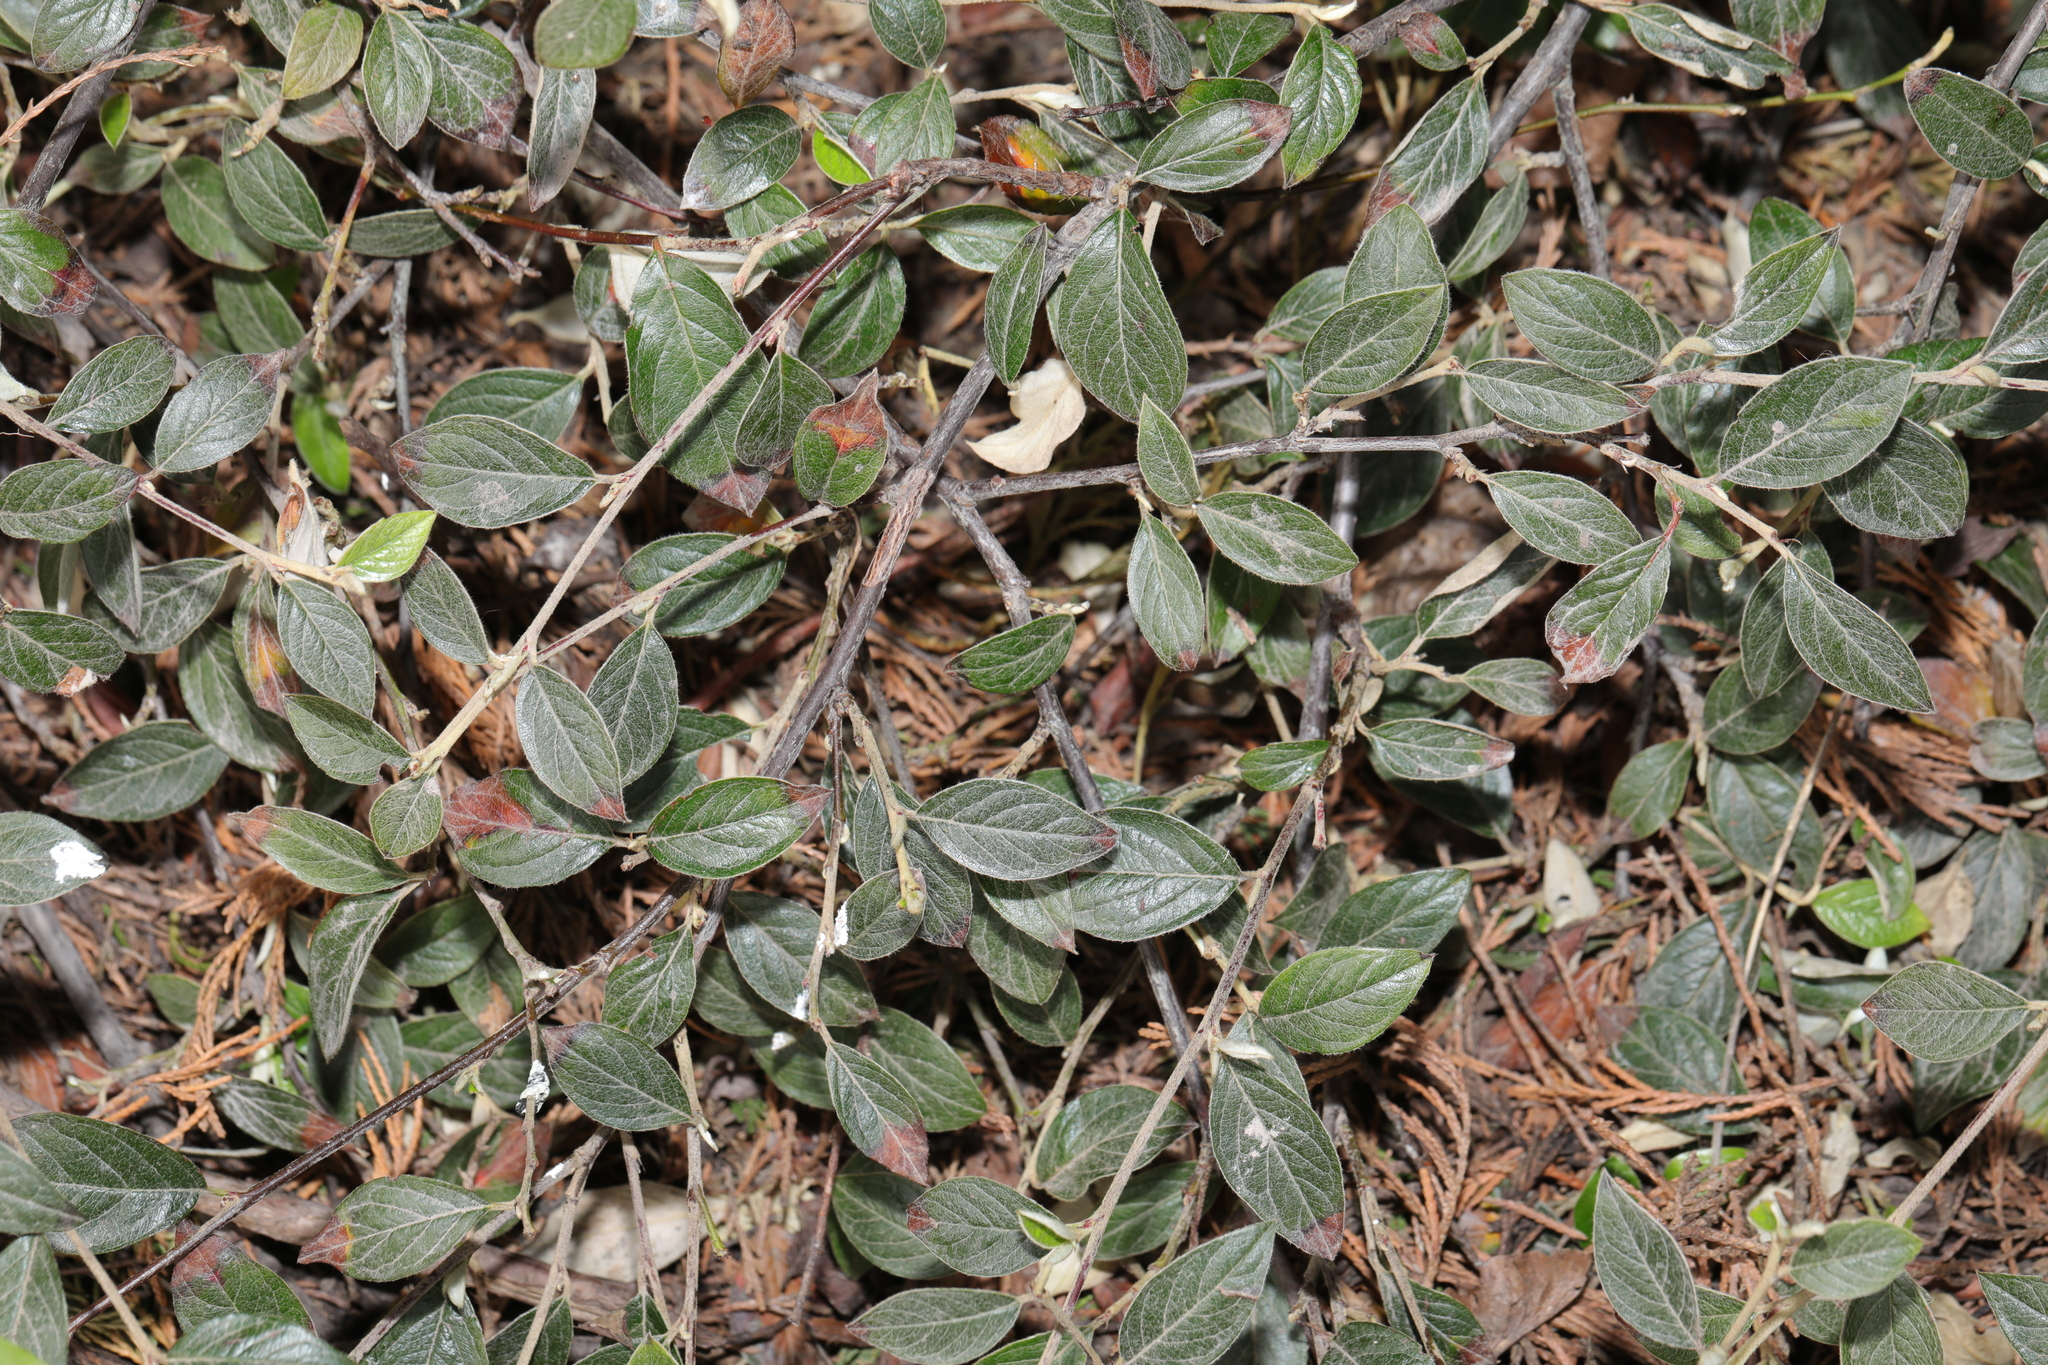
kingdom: Plantae
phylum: Tracheophyta
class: Magnoliopsida
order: Rosales
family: Rosaceae
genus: Cotoneaster
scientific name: Cotoneaster franchetii
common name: Franchet's cotoneaster
